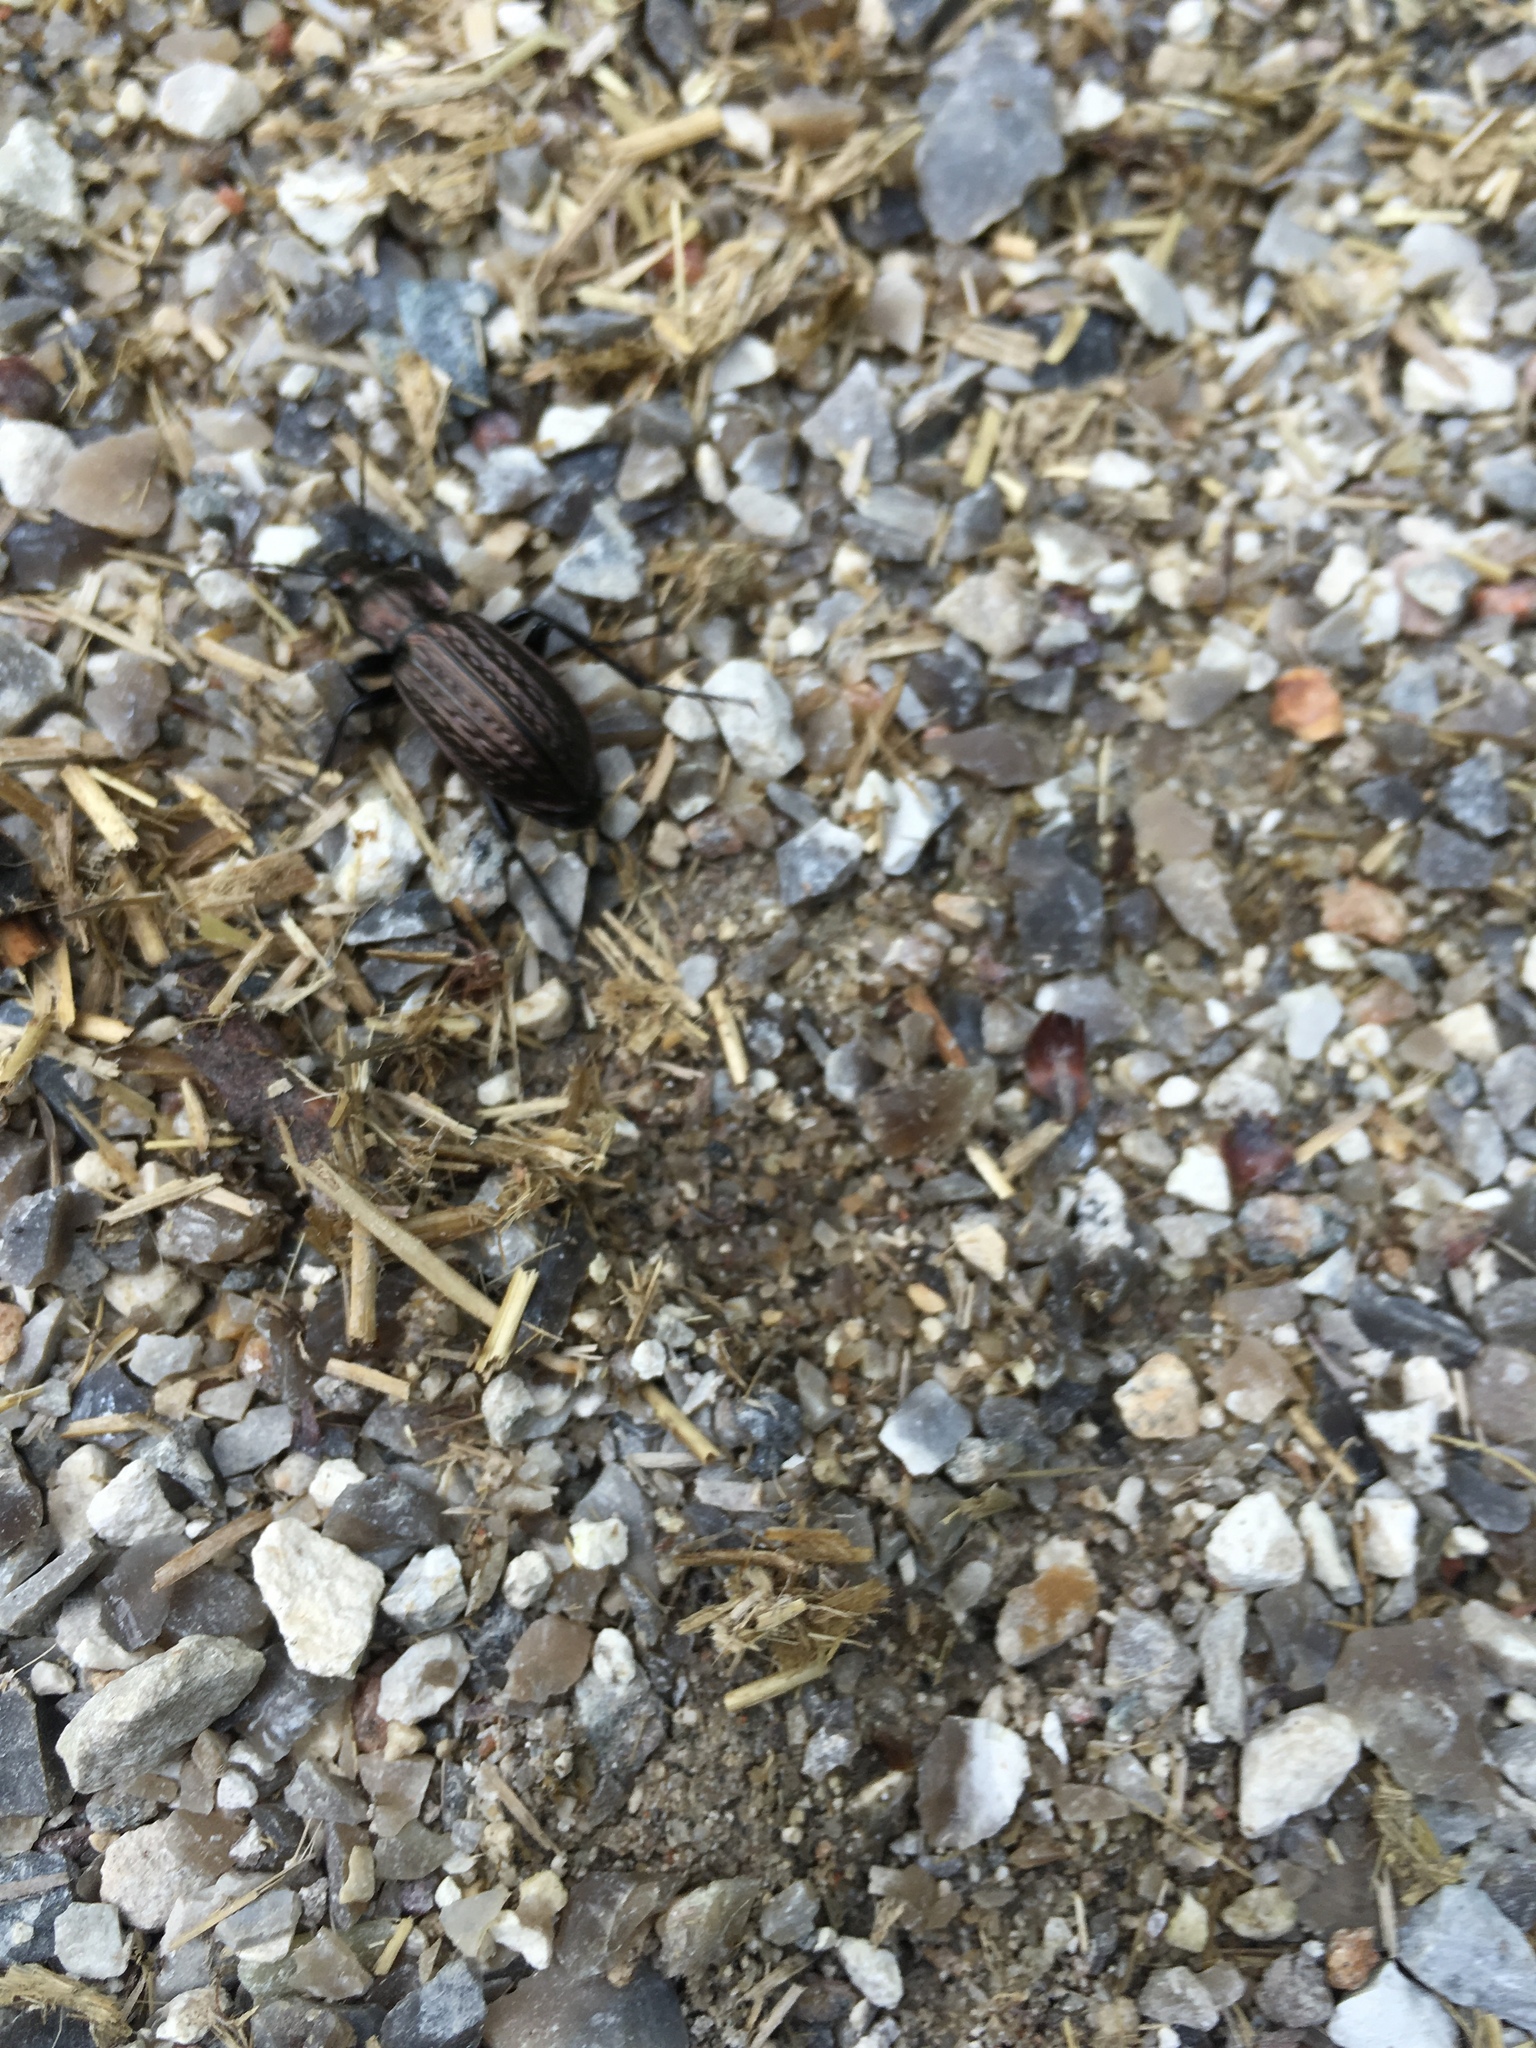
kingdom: Animalia
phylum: Arthropoda
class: Insecta
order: Coleoptera
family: Carabidae
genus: Carabus
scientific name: Carabus granulatus
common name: Granulate ground beetle
